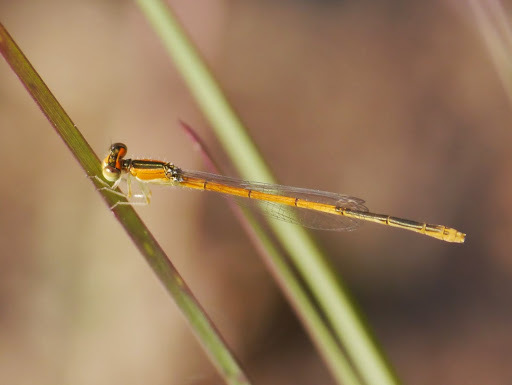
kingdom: Animalia
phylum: Arthropoda
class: Insecta
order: Odonata
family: Coenagrionidae
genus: Ischnura
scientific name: Ischnura hastata
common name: Citrine forktail
